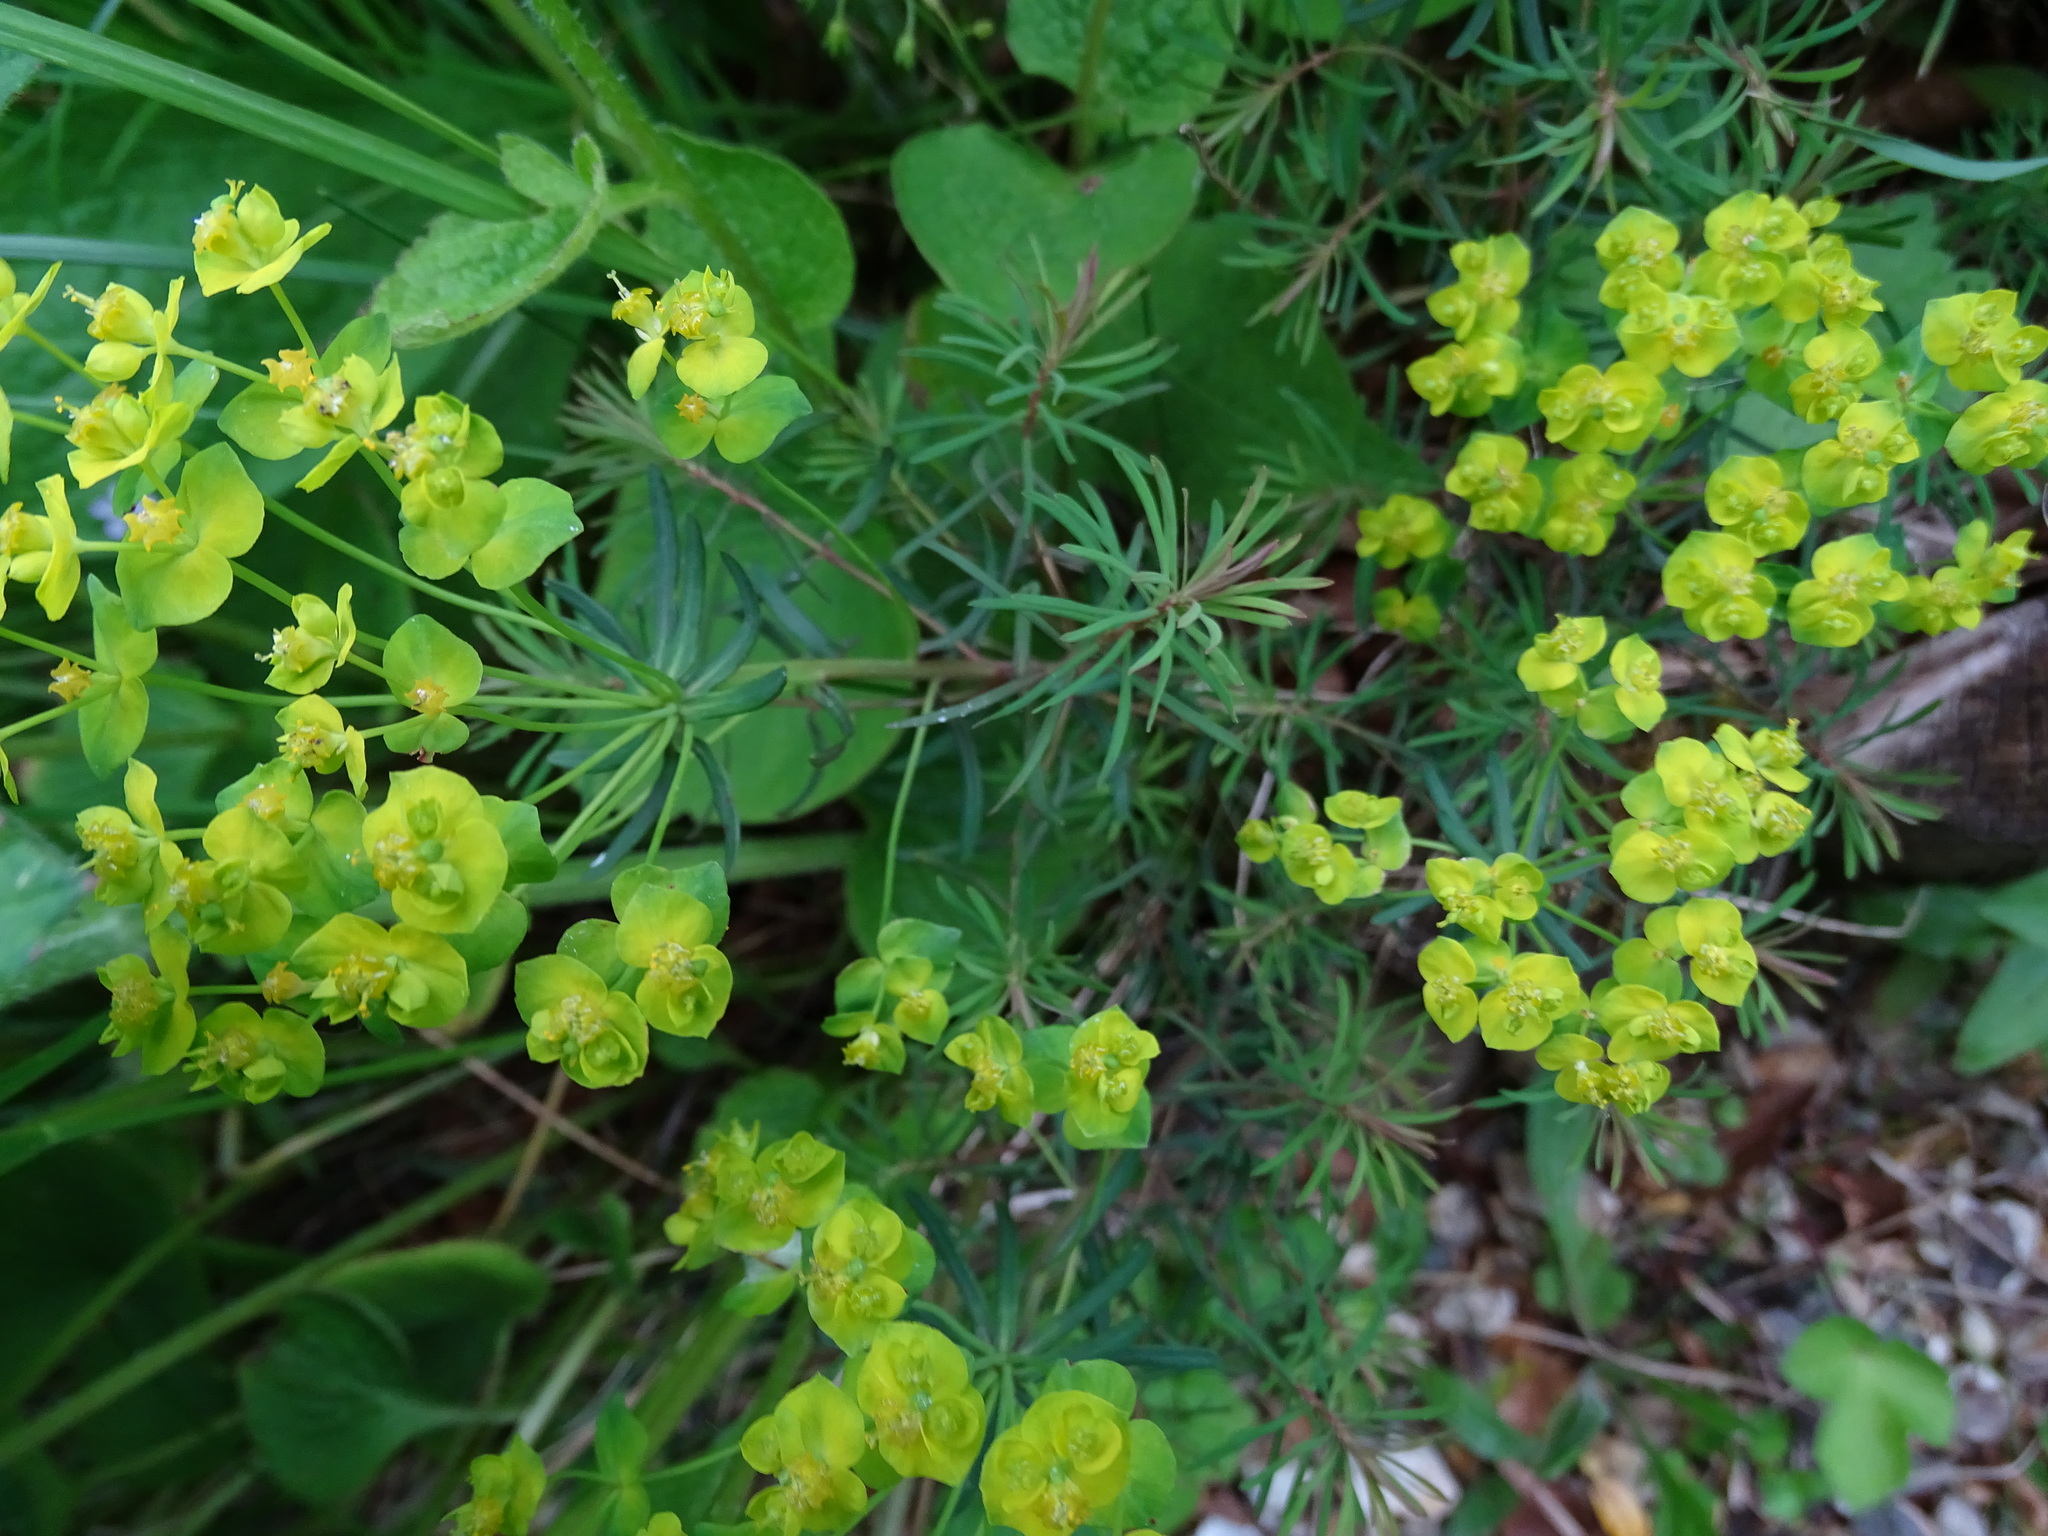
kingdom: Plantae
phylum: Tracheophyta
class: Magnoliopsida
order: Malpighiales
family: Euphorbiaceae
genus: Euphorbia
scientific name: Euphorbia cyparissias
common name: Cypress spurge
